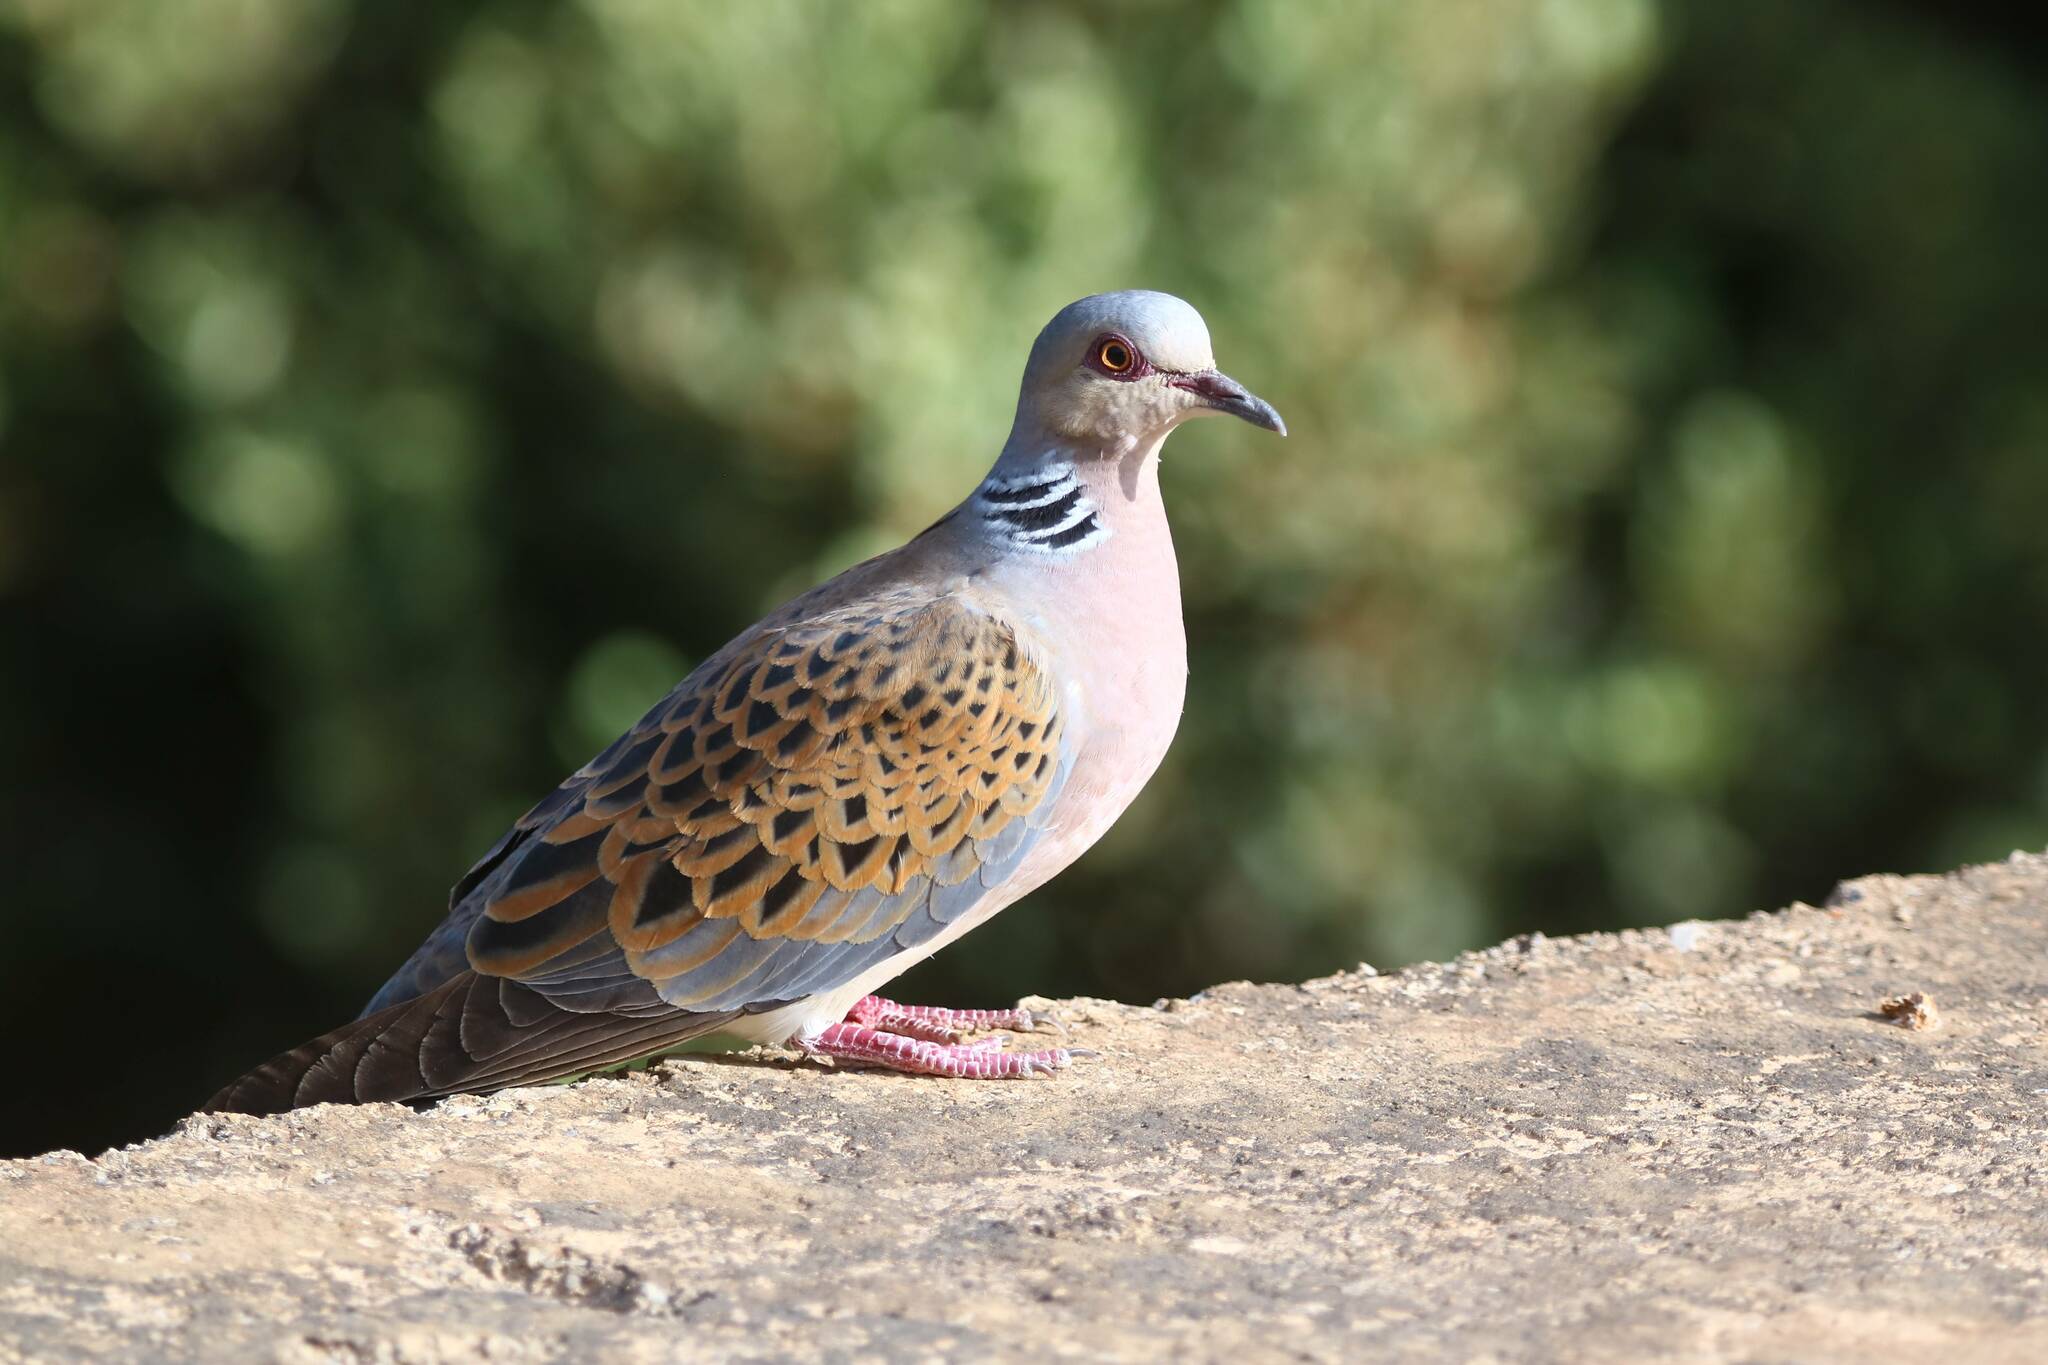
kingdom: Animalia
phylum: Chordata
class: Aves
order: Columbiformes
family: Columbidae
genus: Streptopelia
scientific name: Streptopelia turtur
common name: European turtle dove
